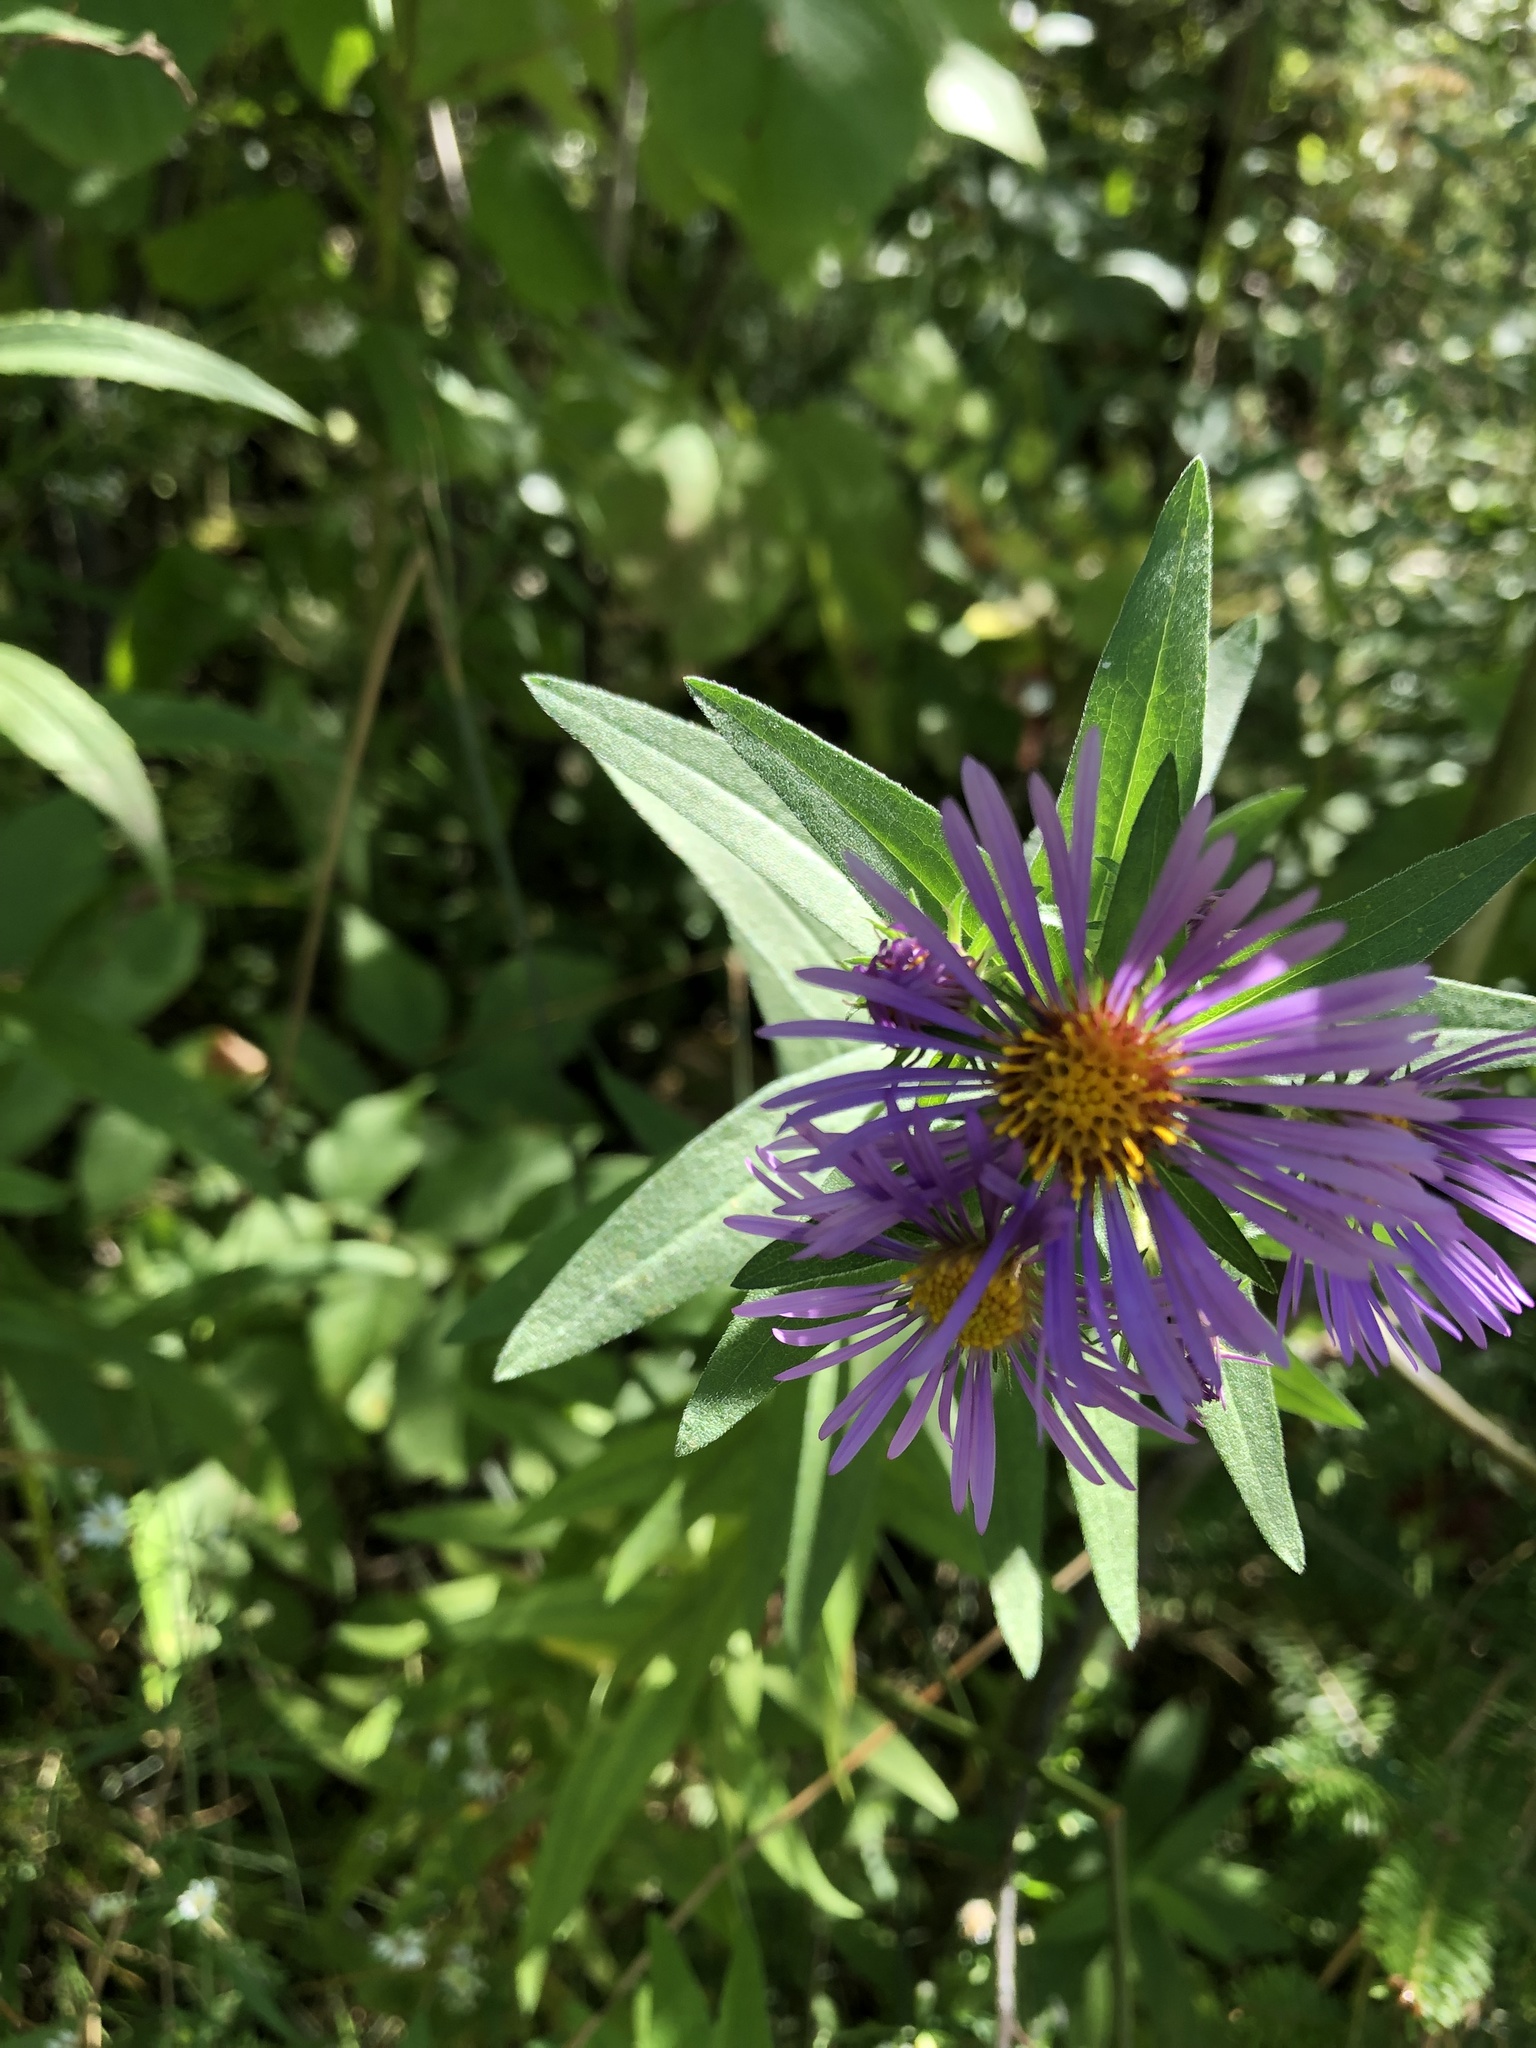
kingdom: Plantae
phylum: Tracheophyta
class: Magnoliopsida
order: Asterales
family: Asteraceae
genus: Symphyotrichum
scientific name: Symphyotrichum novae-angliae
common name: Michaelmas daisy
